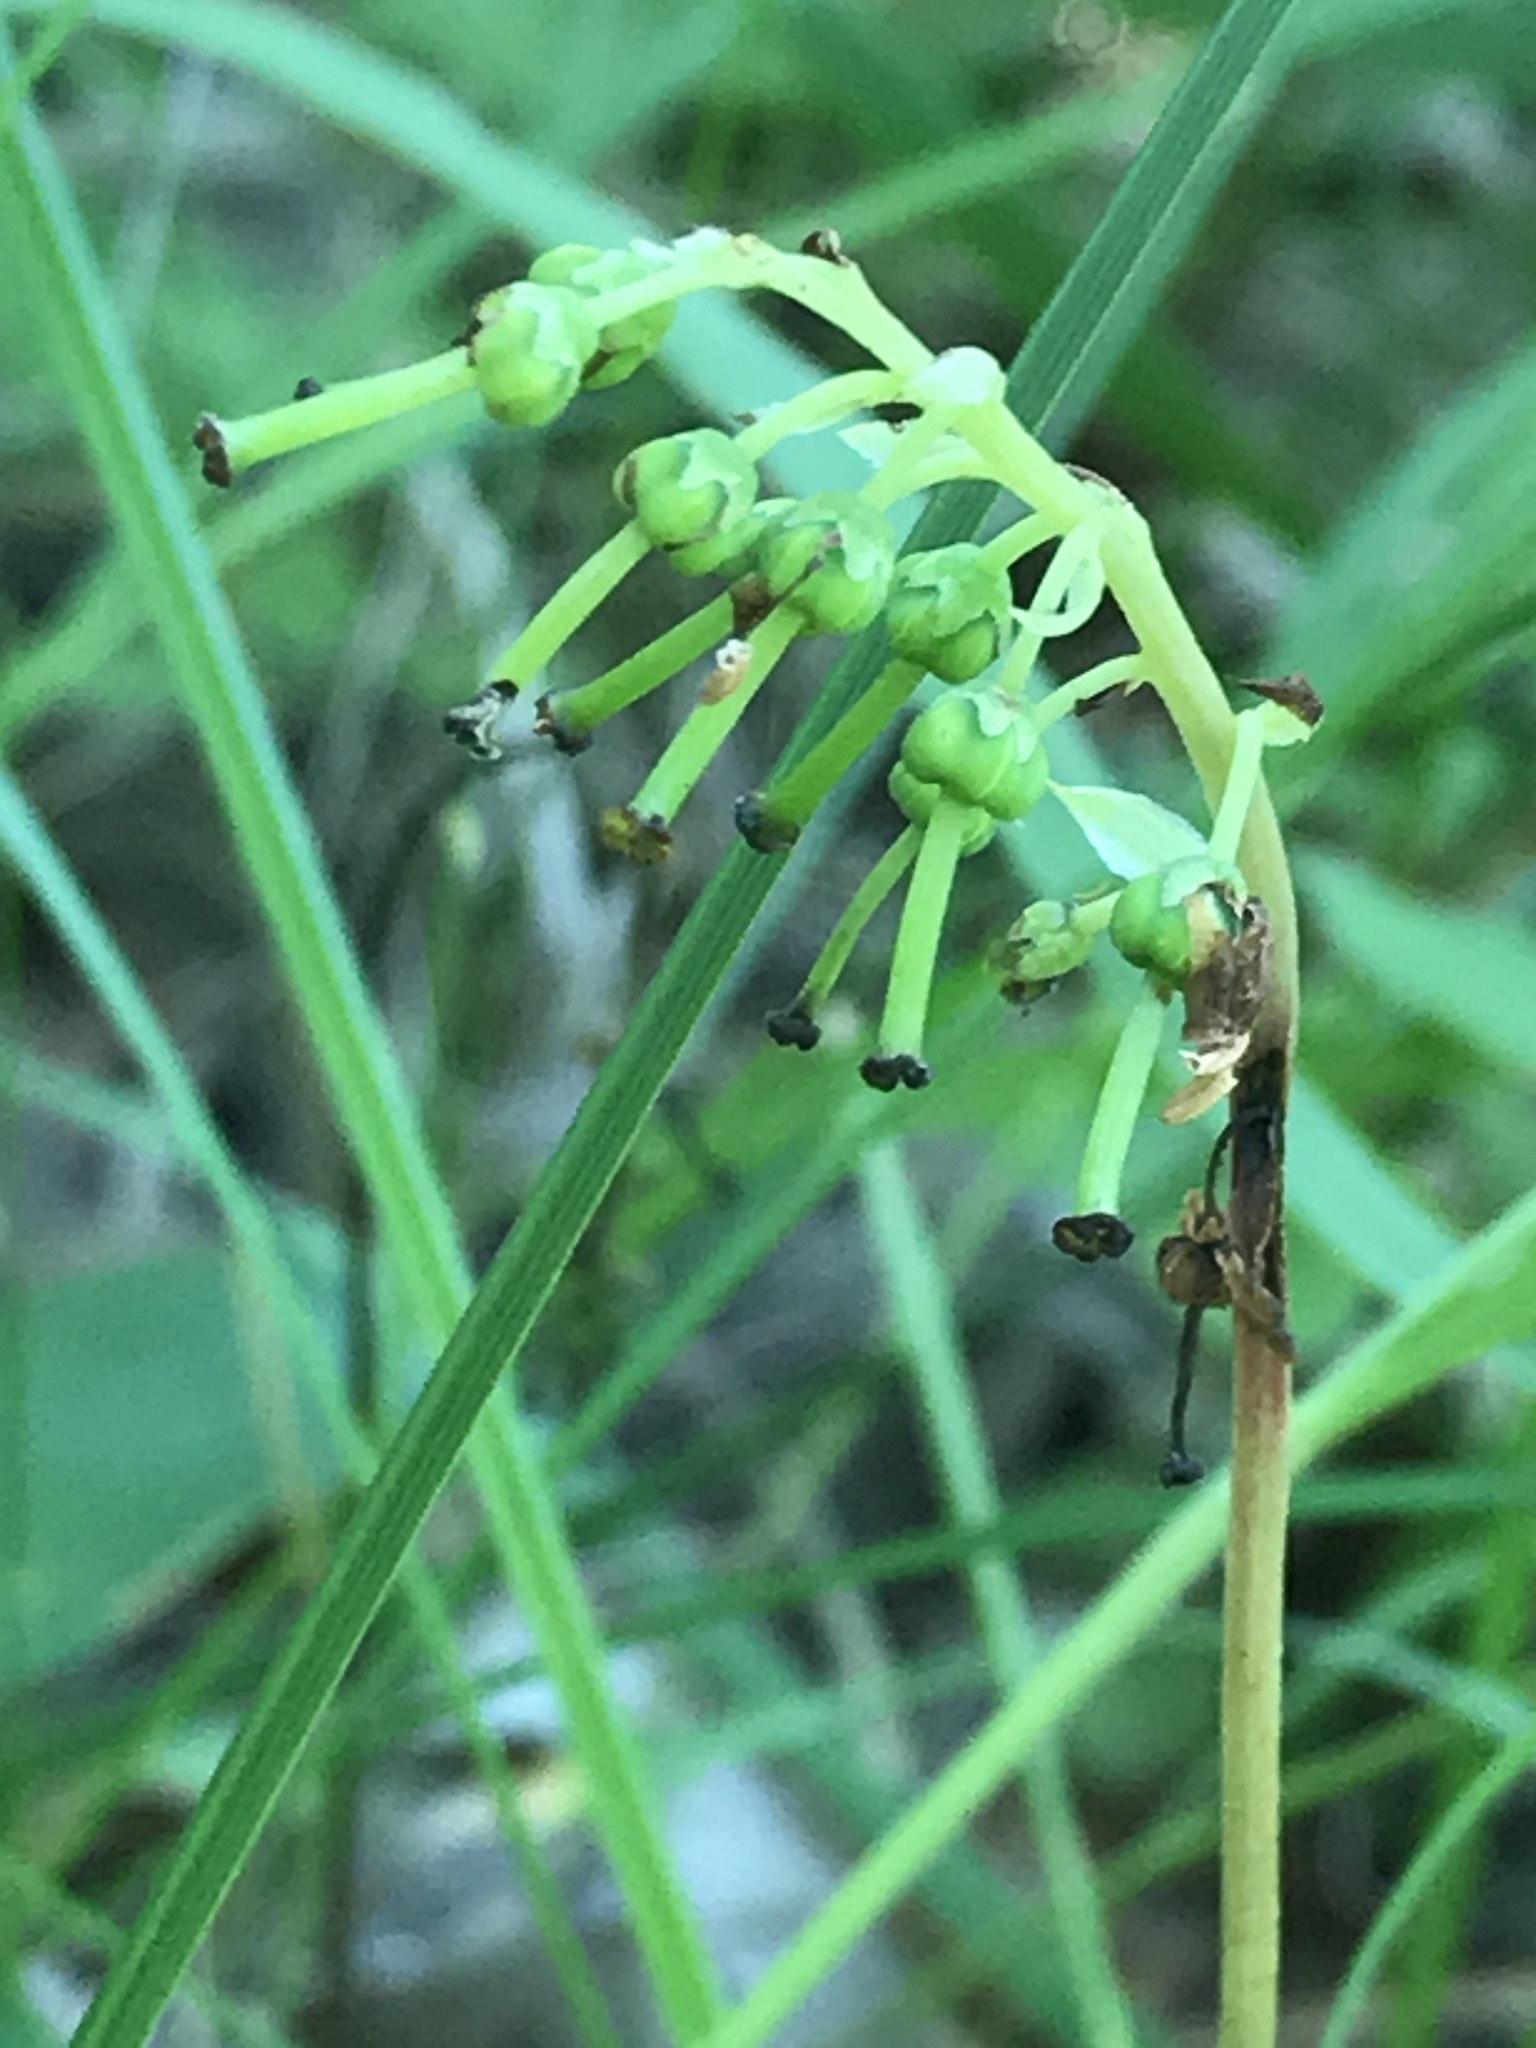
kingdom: Plantae
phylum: Tracheophyta
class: Magnoliopsida
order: Ericales
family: Ericaceae
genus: Orthilia
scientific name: Orthilia secunda
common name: One-sided orthilia
